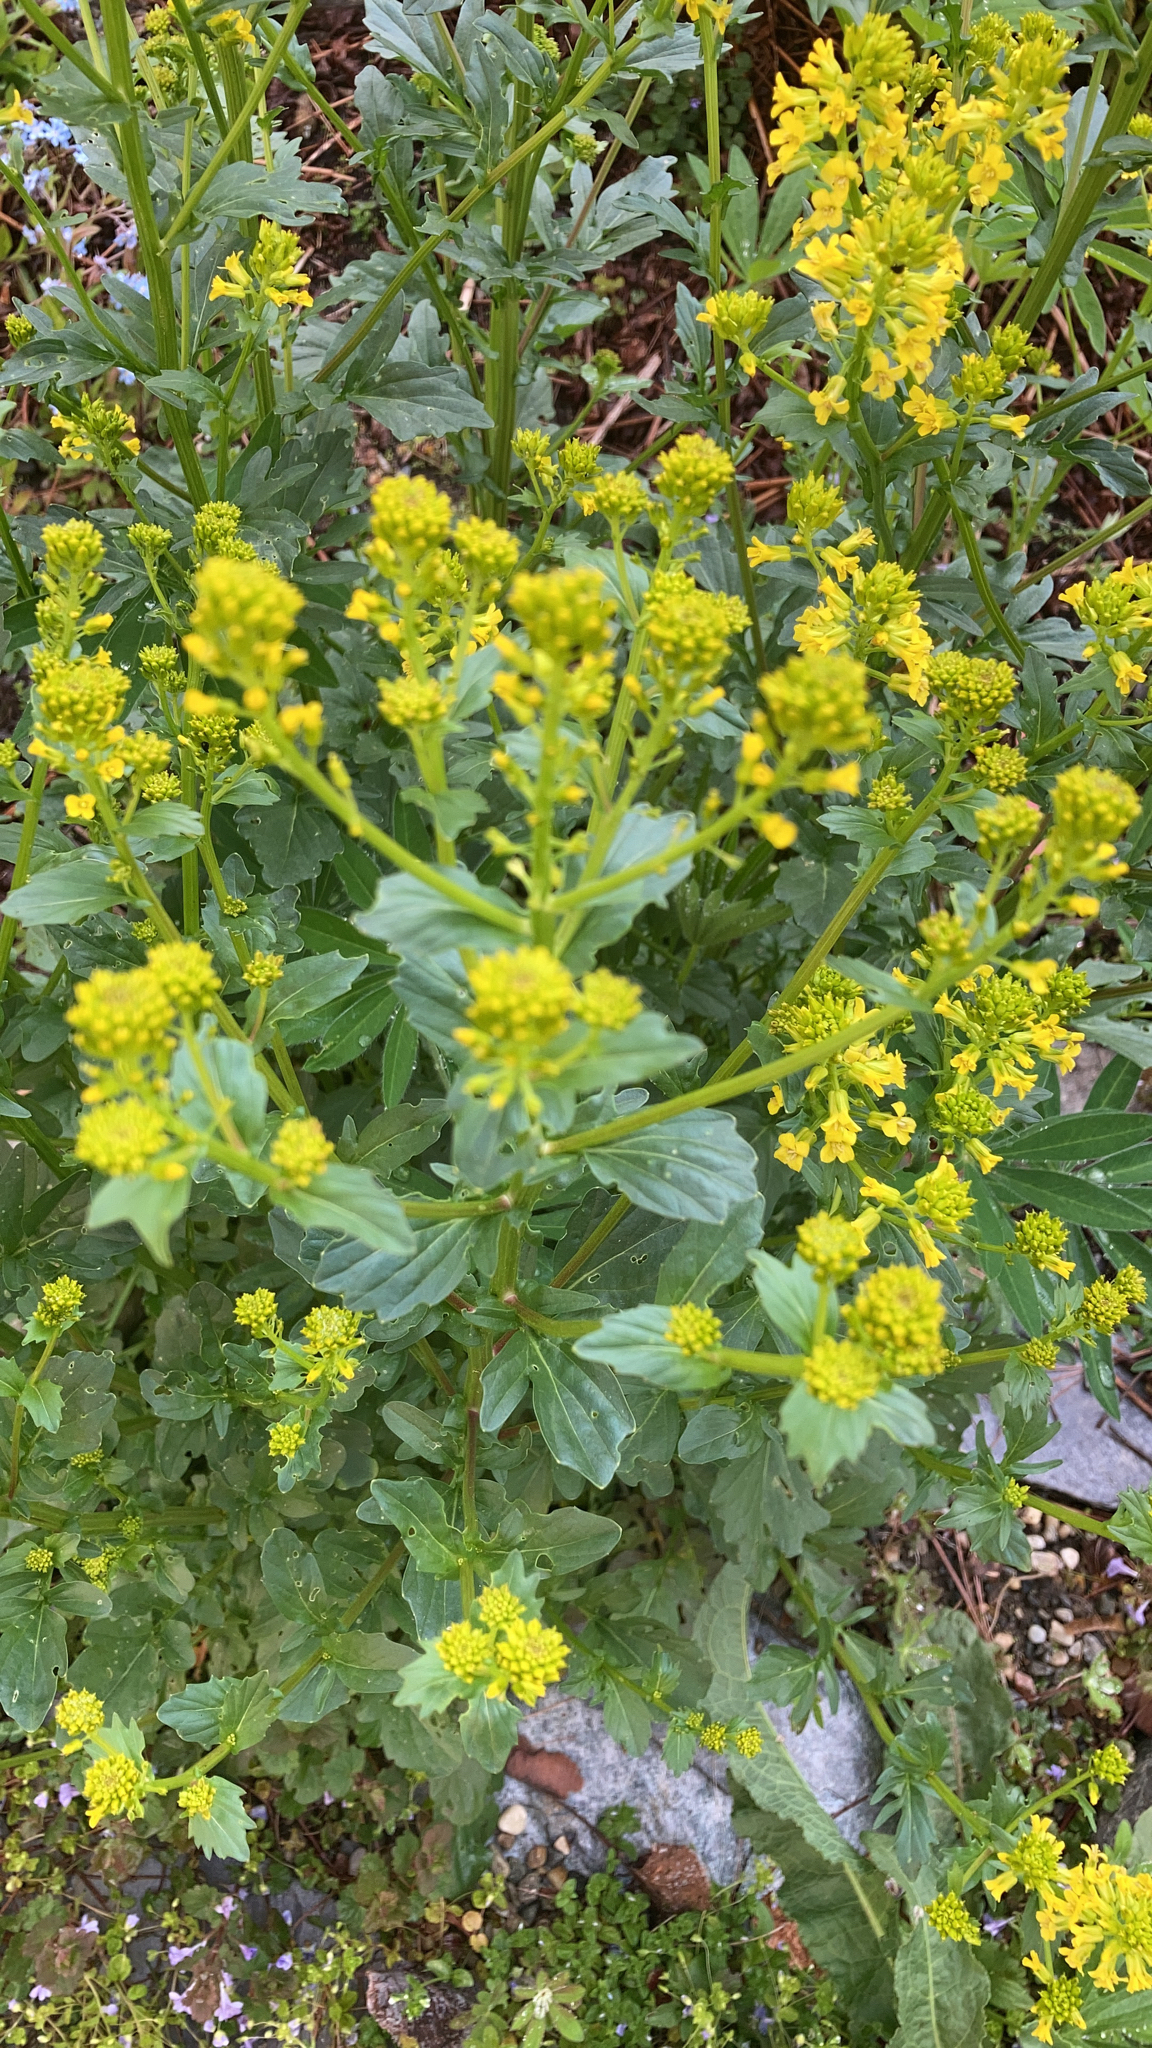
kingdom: Plantae
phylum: Tracheophyta
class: Magnoliopsida
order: Brassicales
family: Brassicaceae
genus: Barbarea
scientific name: Barbarea vulgaris
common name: Cressy-greens
